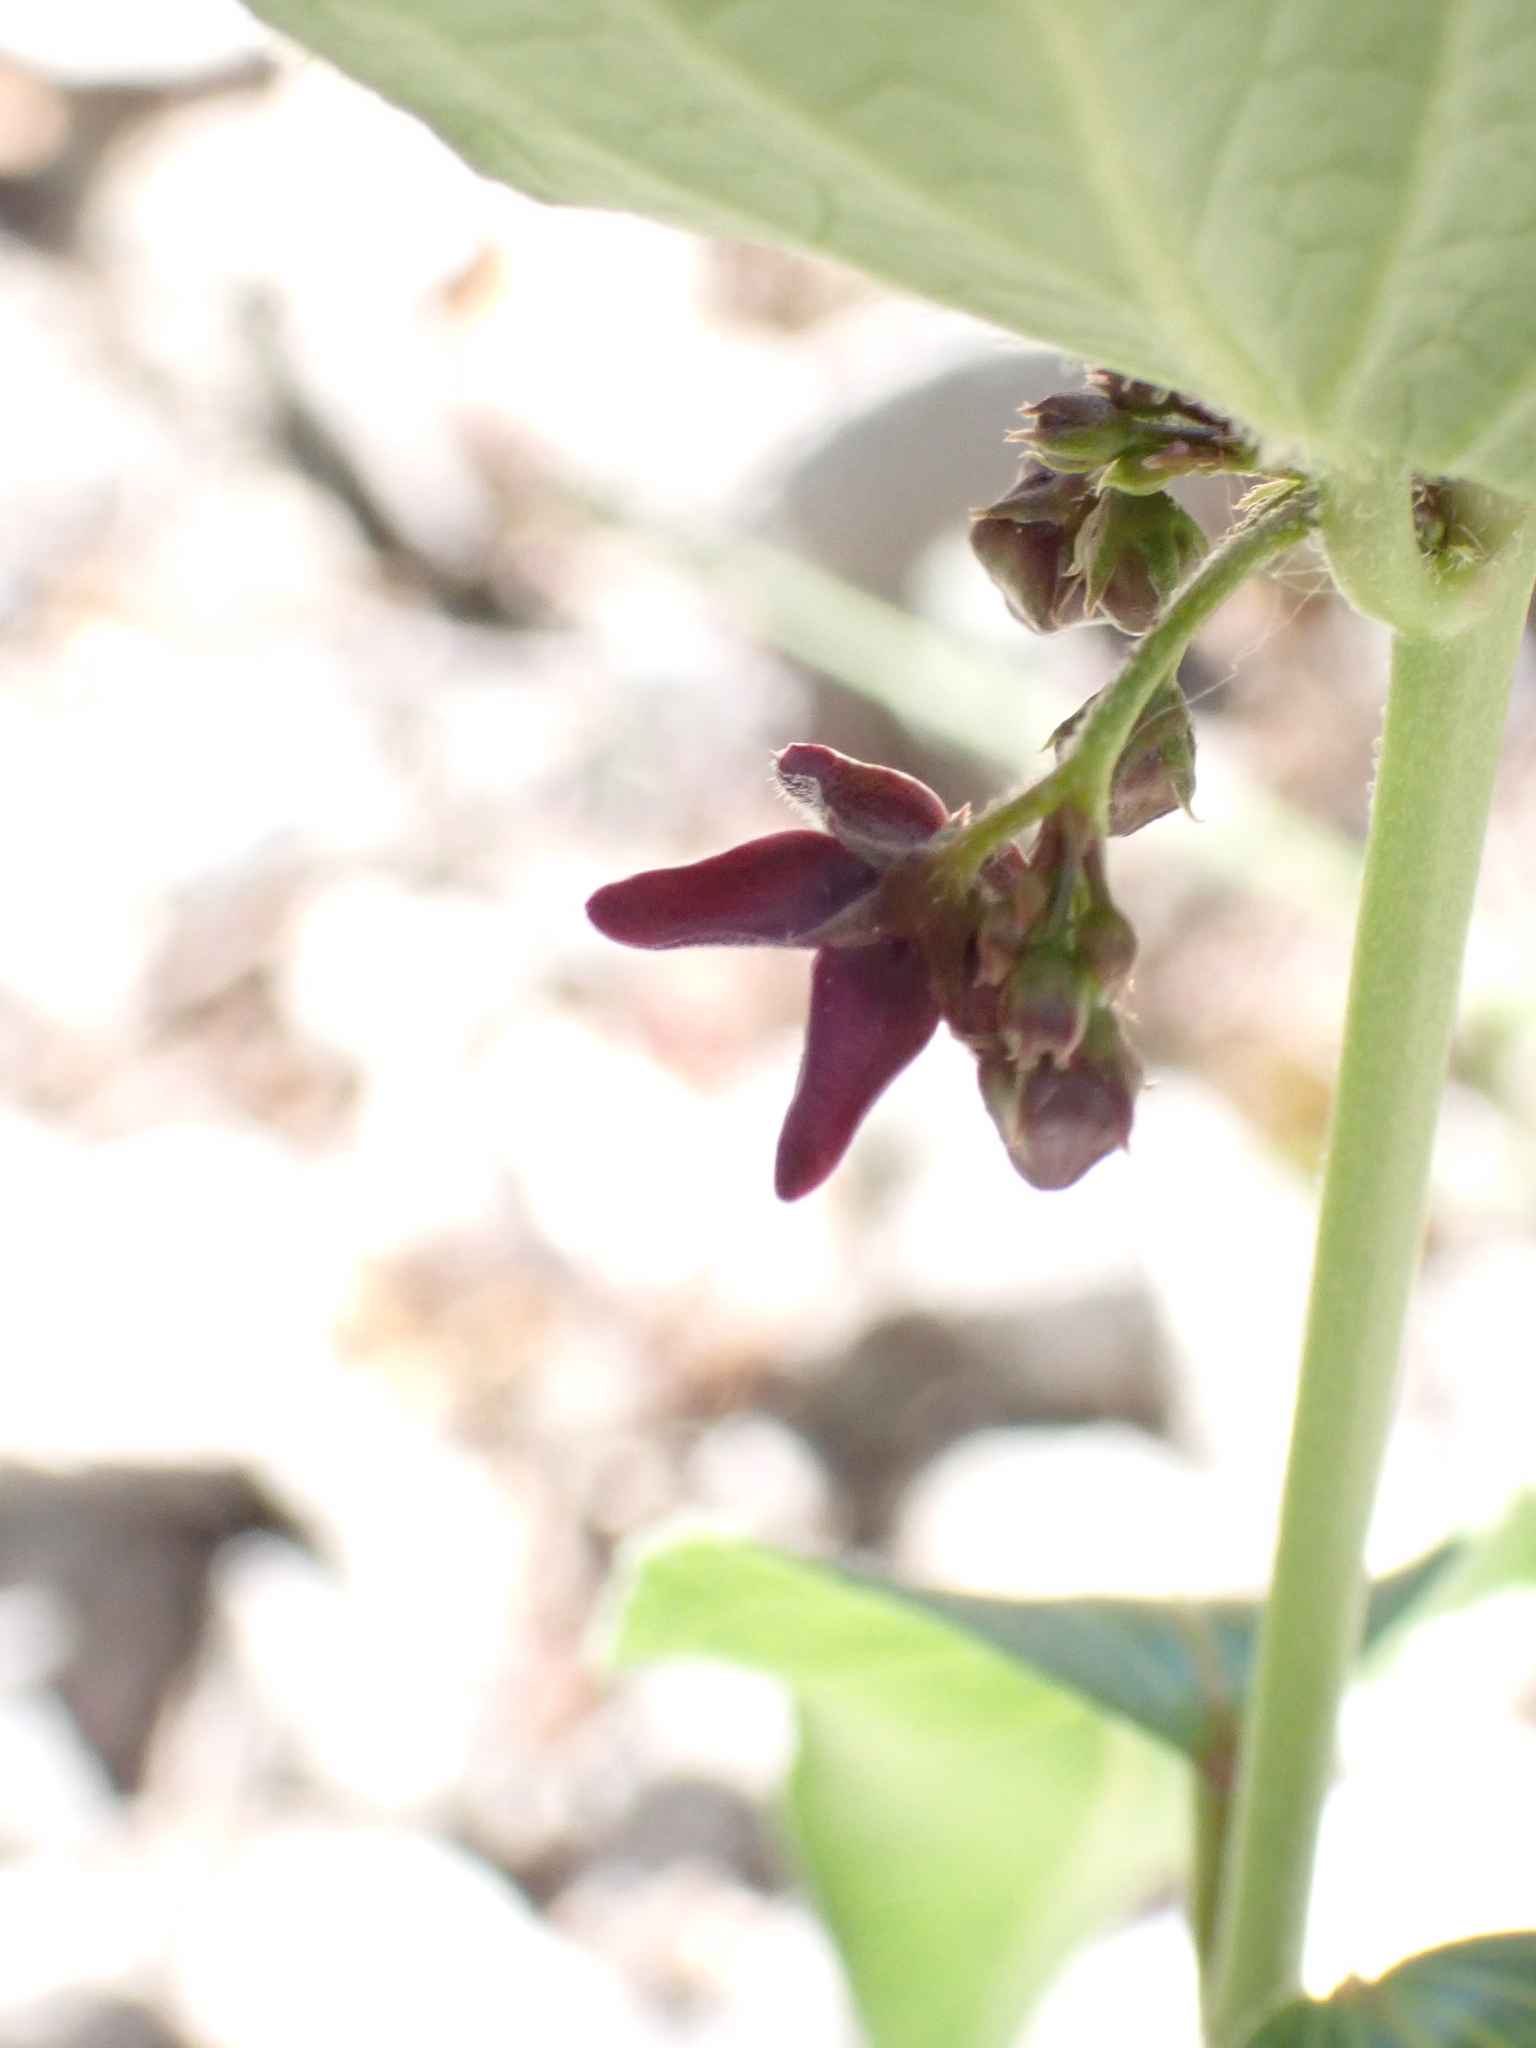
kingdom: Plantae
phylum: Tracheophyta
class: Magnoliopsida
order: Gentianales
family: Apocynaceae
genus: Vincetoxicum
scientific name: Vincetoxicum nigrum
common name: Black swallow-wort
